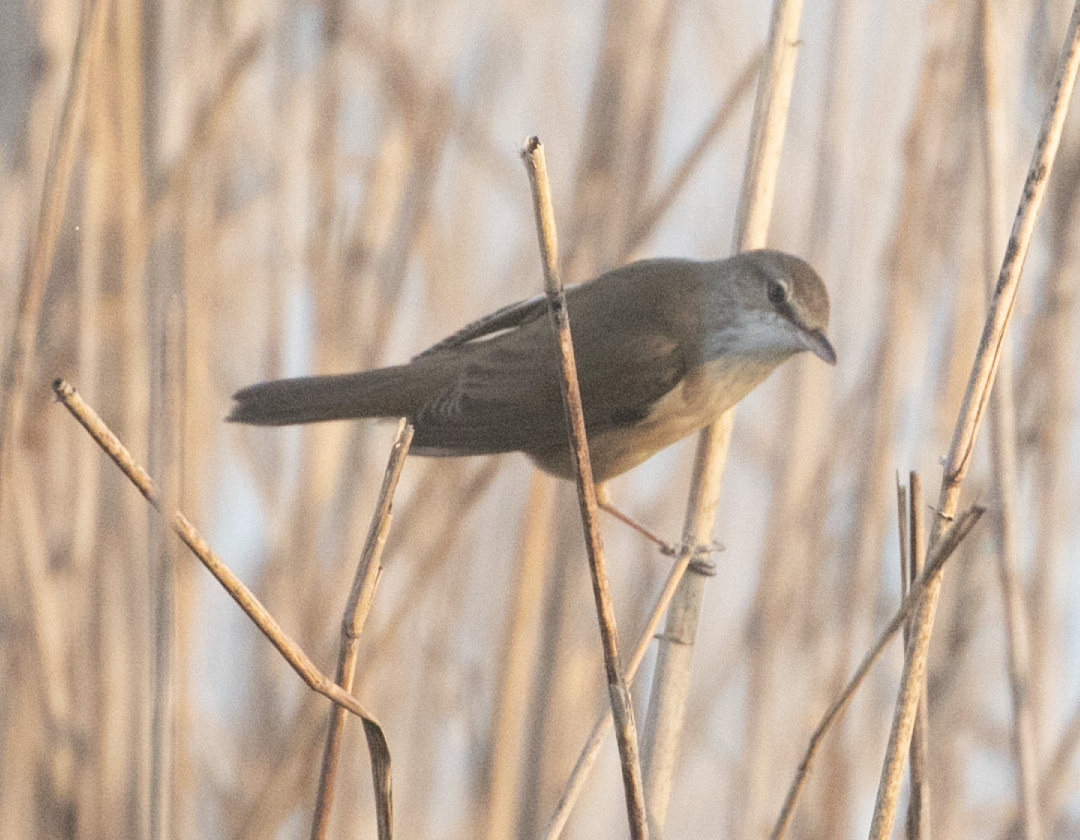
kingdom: Animalia
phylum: Chordata
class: Aves
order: Passeriformes
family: Acrocephalidae
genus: Acrocephalus
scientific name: Acrocephalus arundinaceus
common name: Great reed warbler
